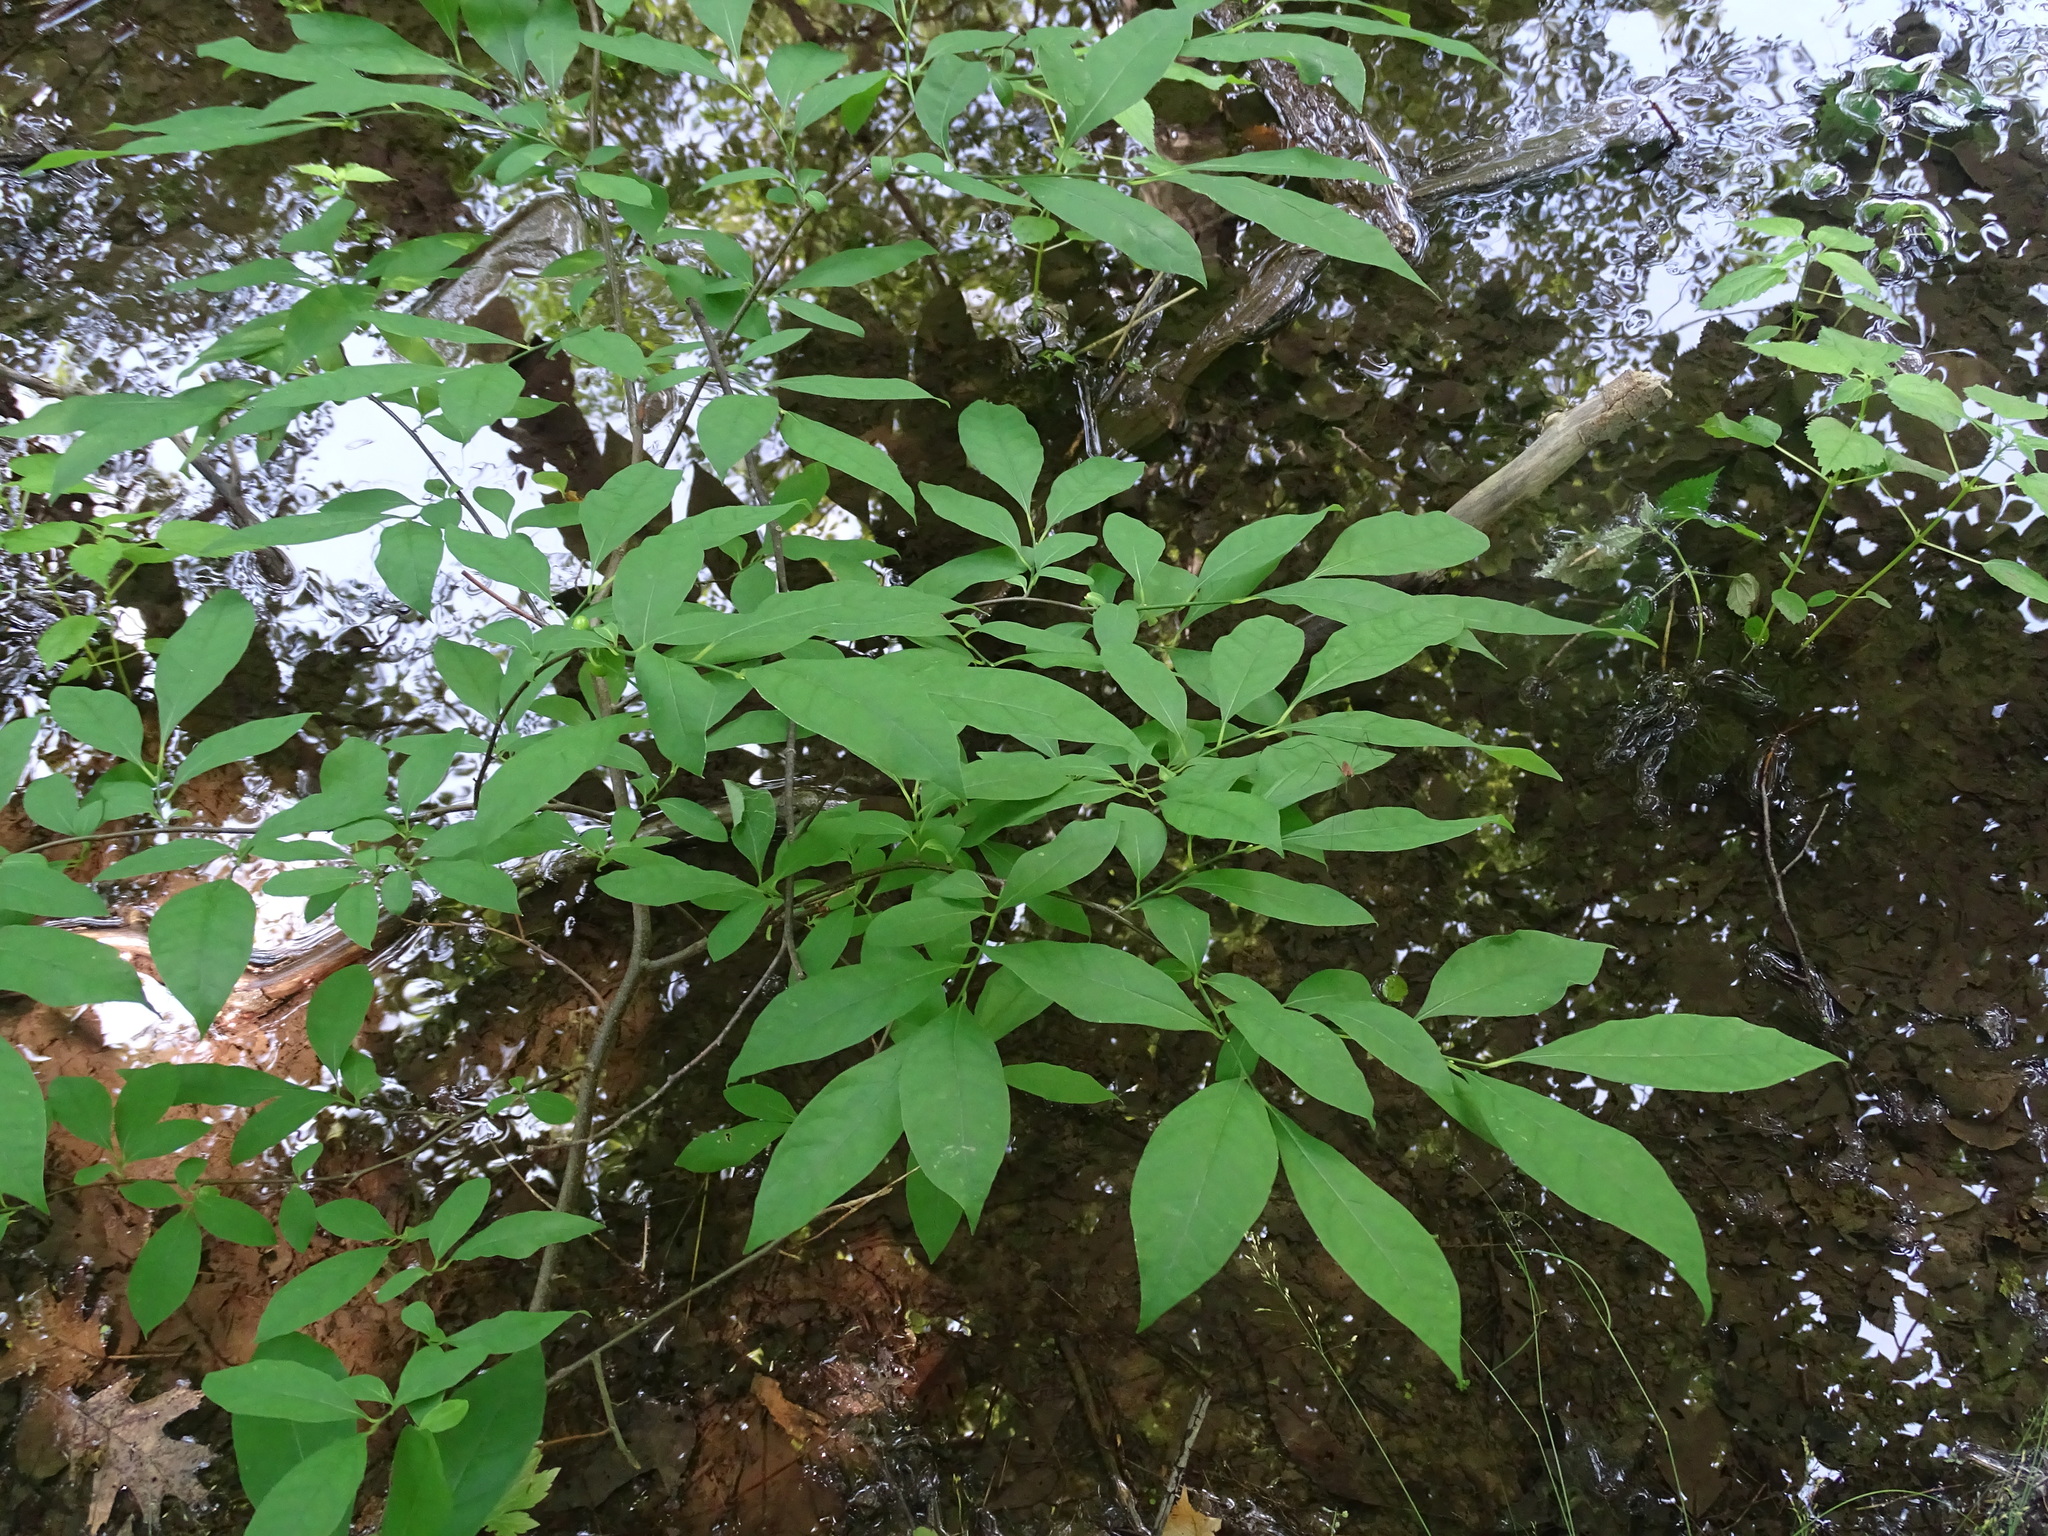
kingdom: Plantae
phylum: Tracheophyta
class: Magnoliopsida
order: Laurales
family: Lauraceae
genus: Lindera
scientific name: Lindera benzoin
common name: Spicebush
